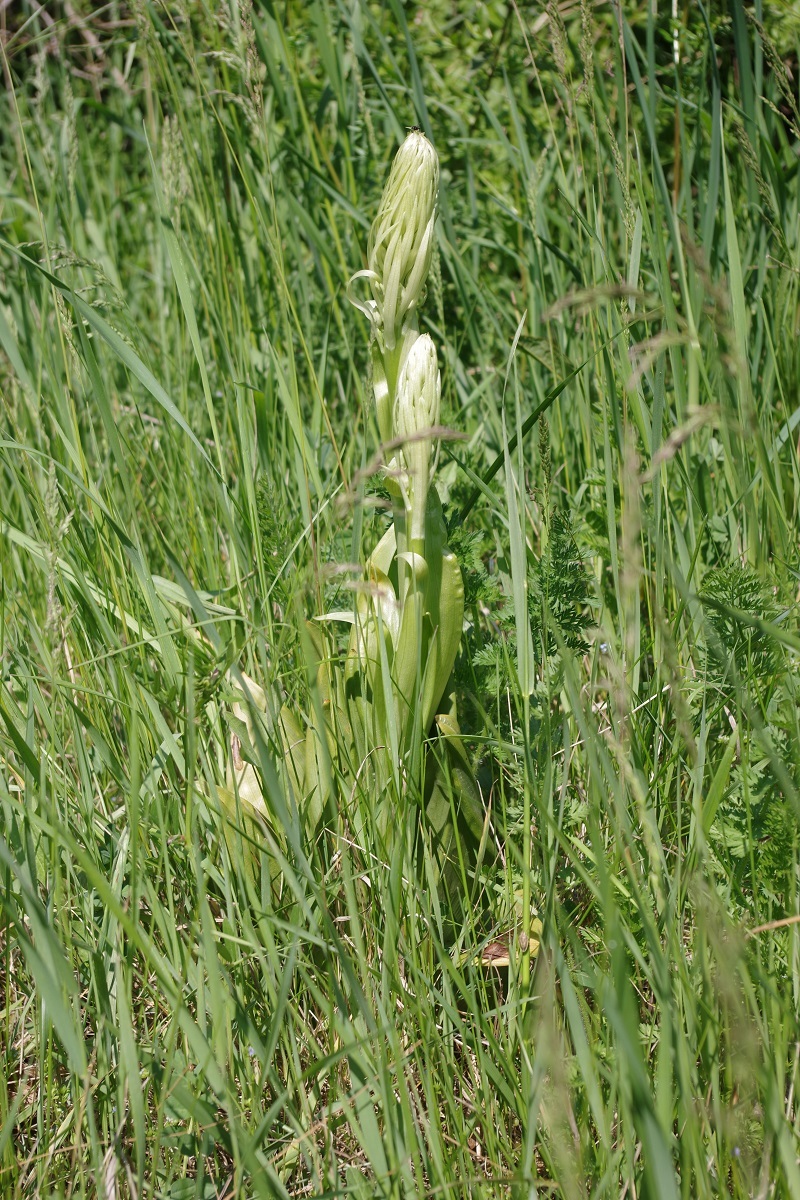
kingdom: Plantae
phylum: Tracheophyta
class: Liliopsida
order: Asparagales
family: Orchidaceae
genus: Himantoglossum
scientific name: Himantoglossum hircinum
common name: Lizard orchid
